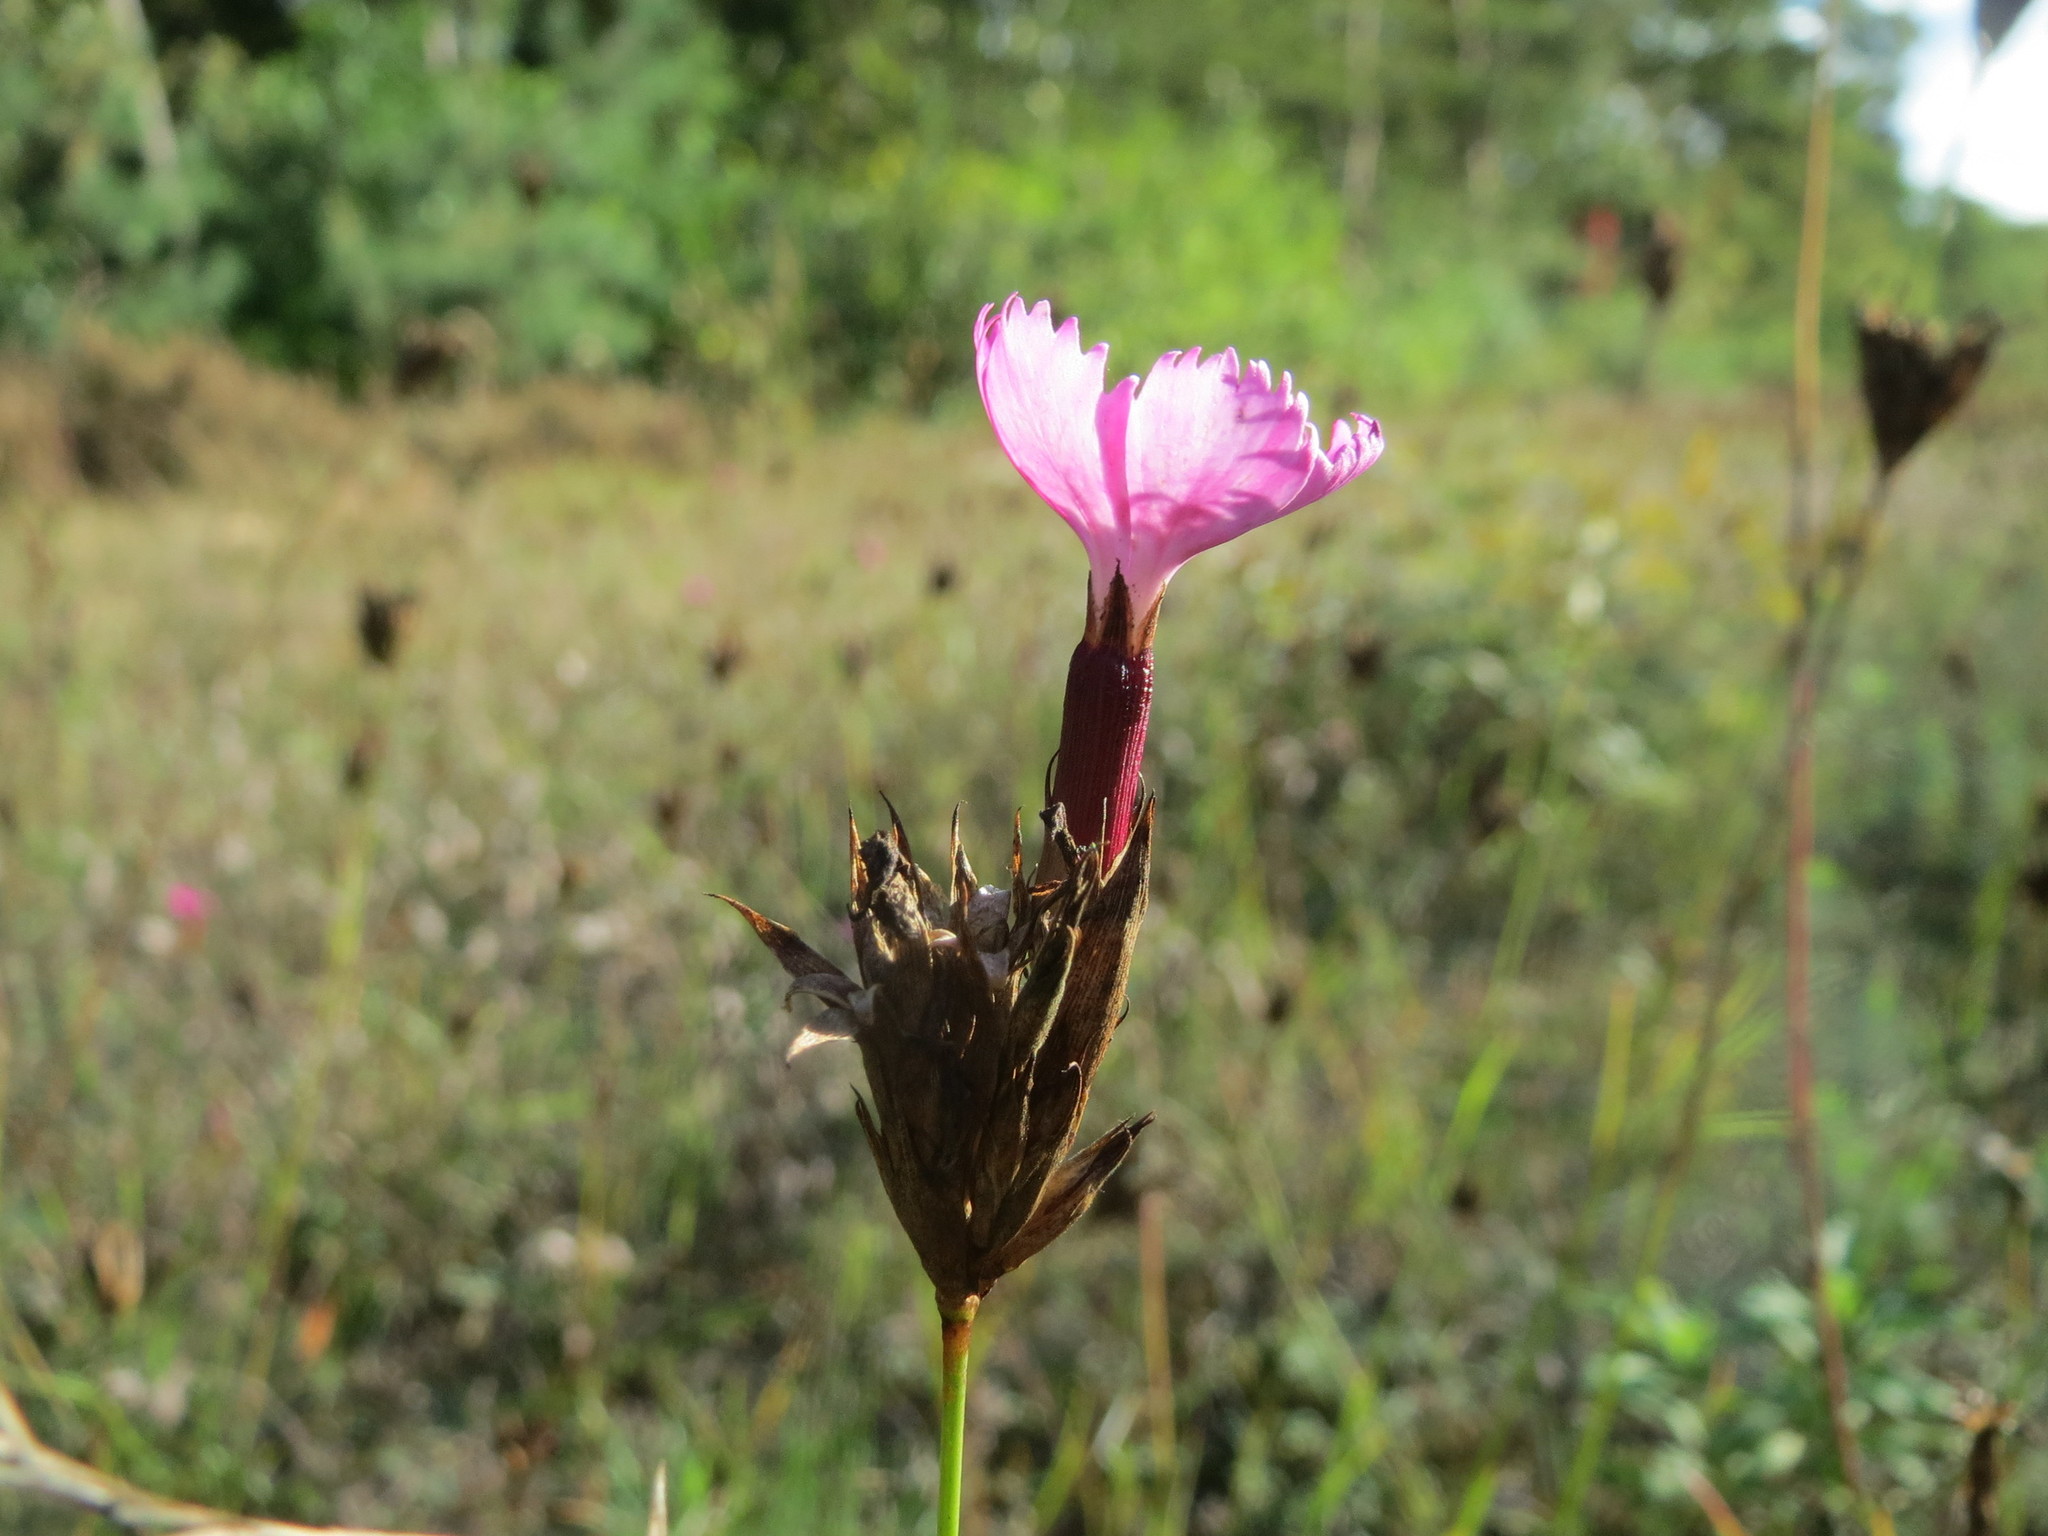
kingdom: Plantae
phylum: Tracheophyta
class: Magnoliopsida
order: Caryophyllales
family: Caryophyllaceae
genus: Dianthus
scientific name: Dianthus carthusianorum
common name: Carthusian pink
